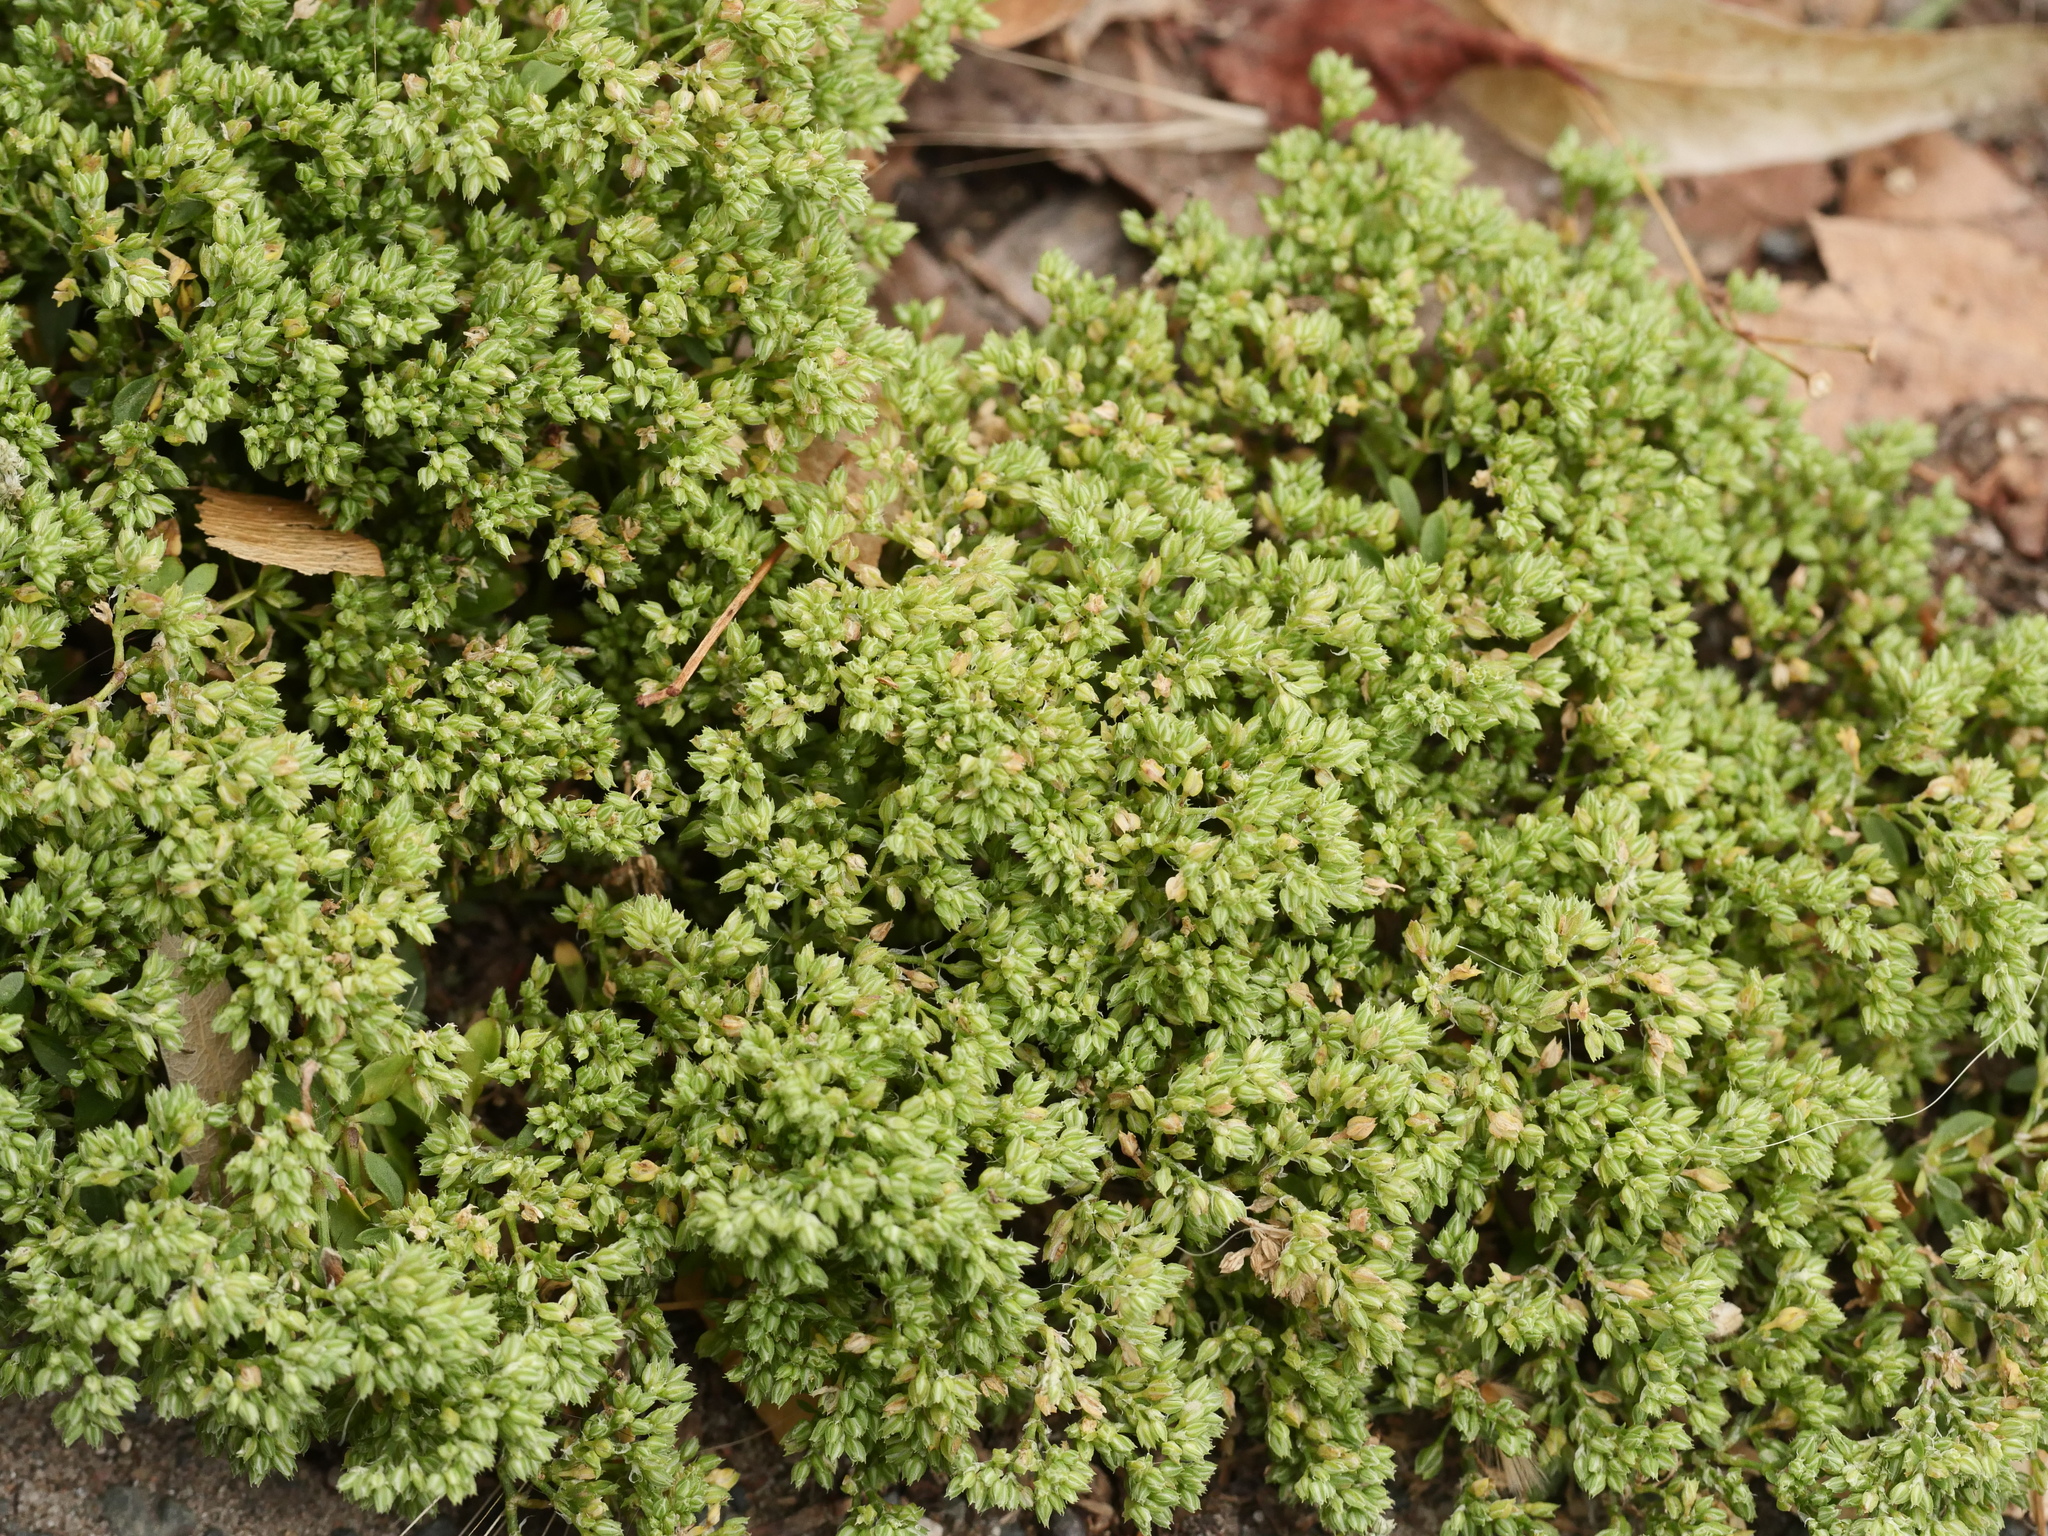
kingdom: Plantae
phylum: Tracheophyta
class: Magnoliopsida
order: Caryophyllales
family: Caryophyllaceae
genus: Polycarpon
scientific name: Polycarpon tetraphyllum
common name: Four-leaved all-seed
